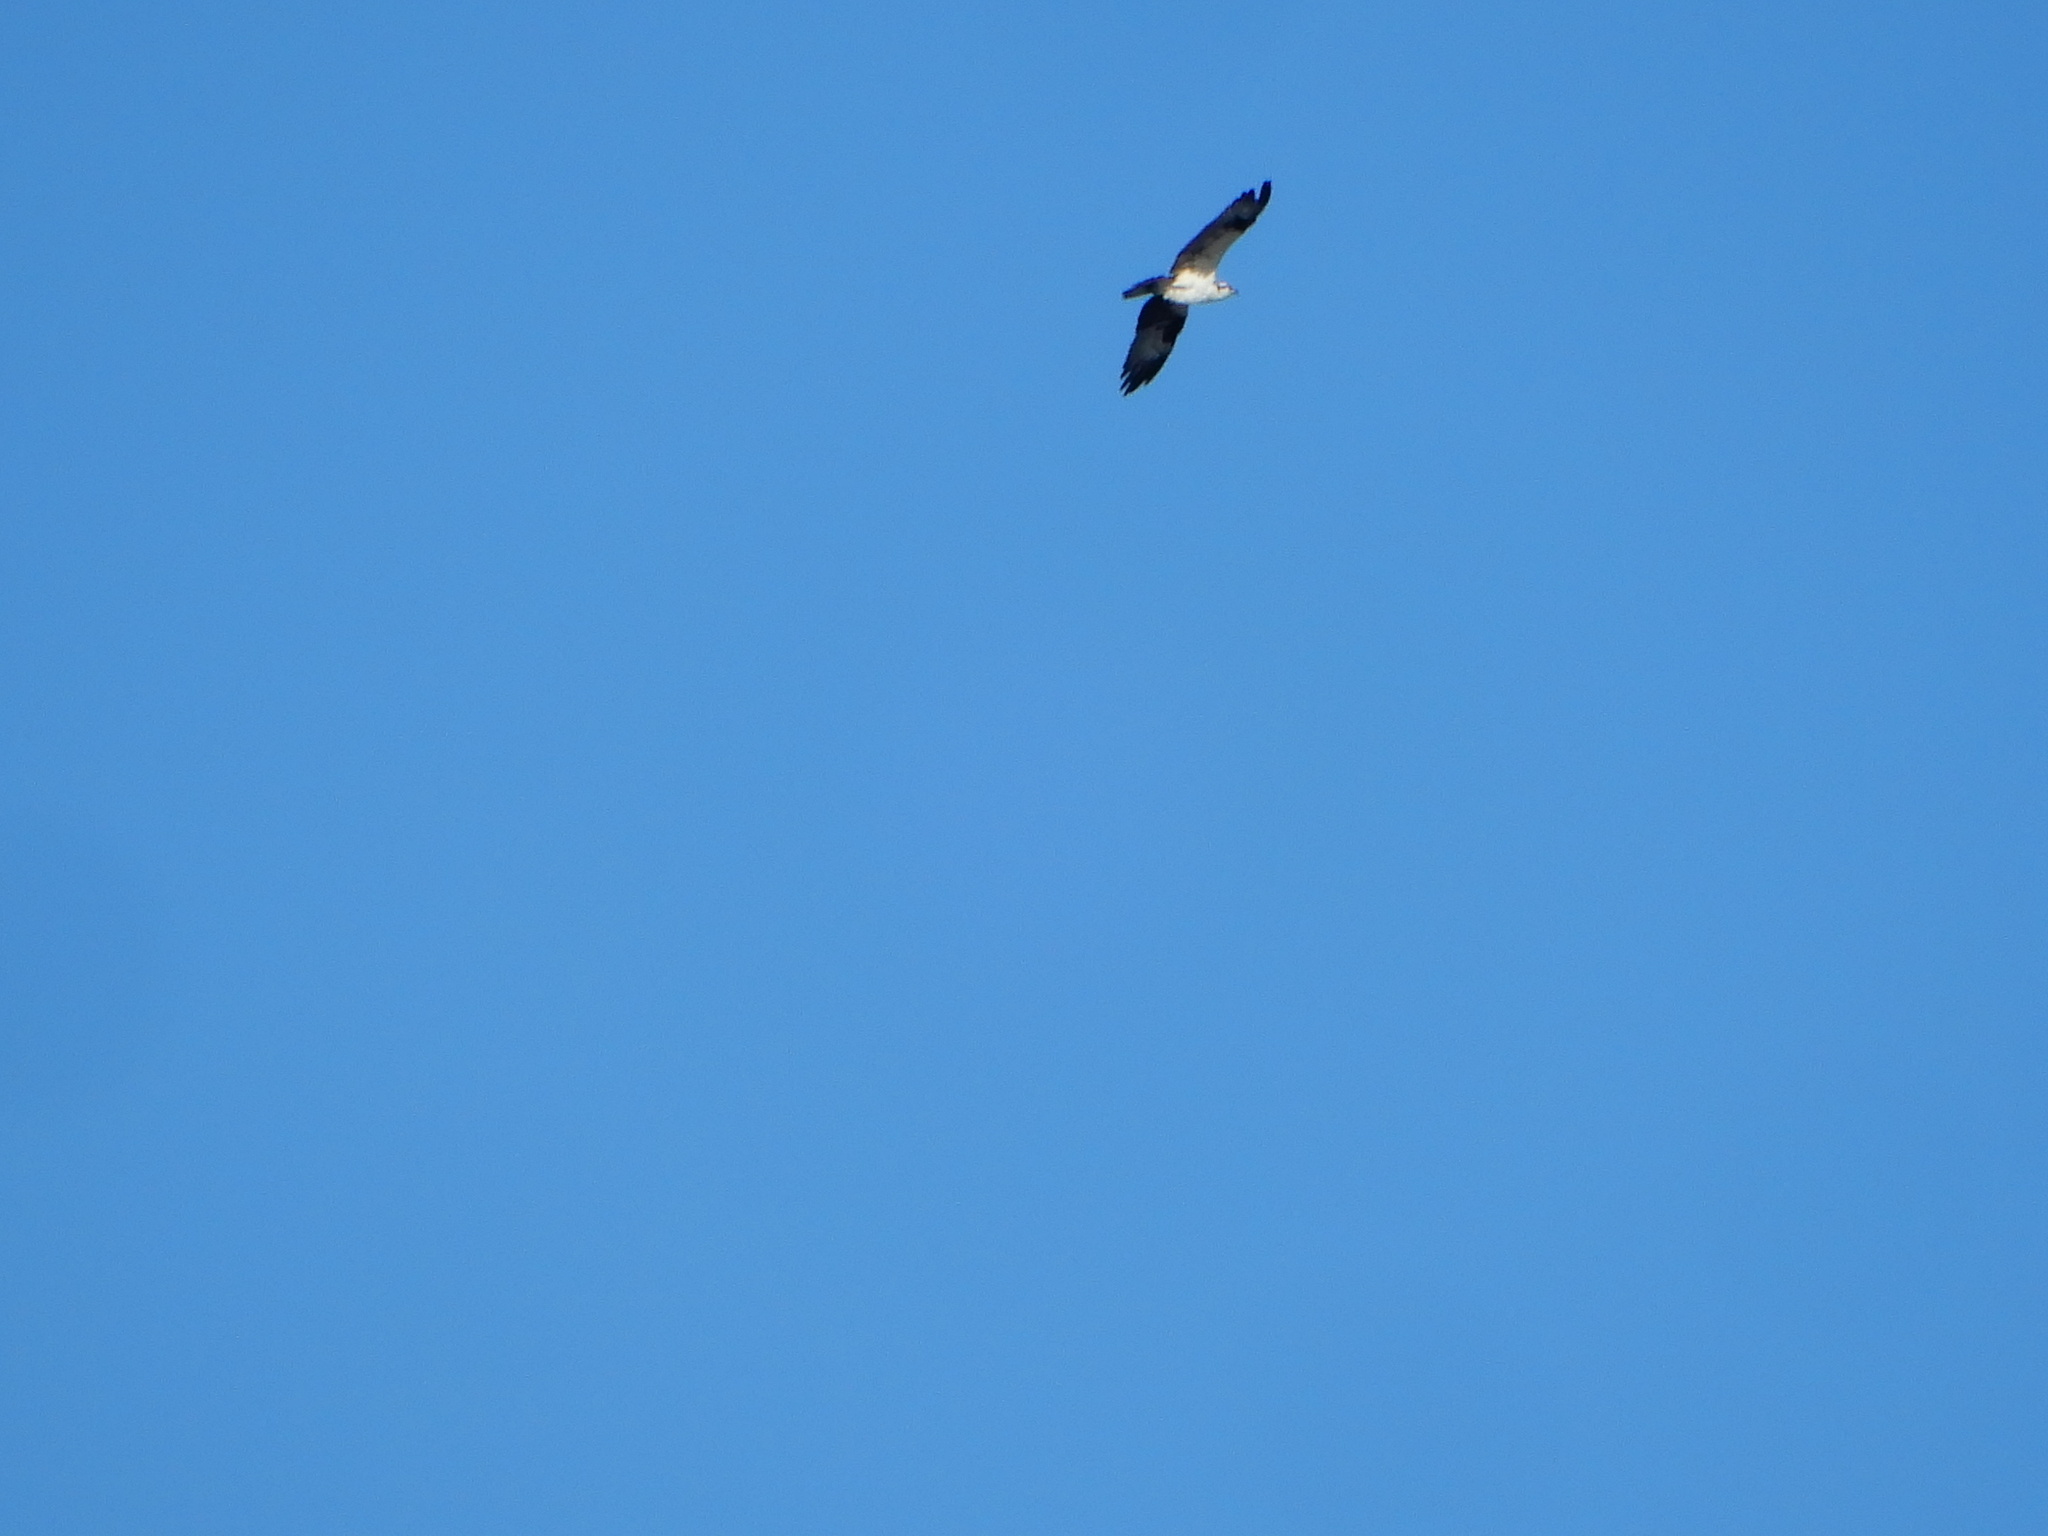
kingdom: Animalia
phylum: Chordata
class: Aves
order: Accipitriformes
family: Pandionidae
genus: Pandion
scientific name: Pandion haliaetus
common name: Osprey
